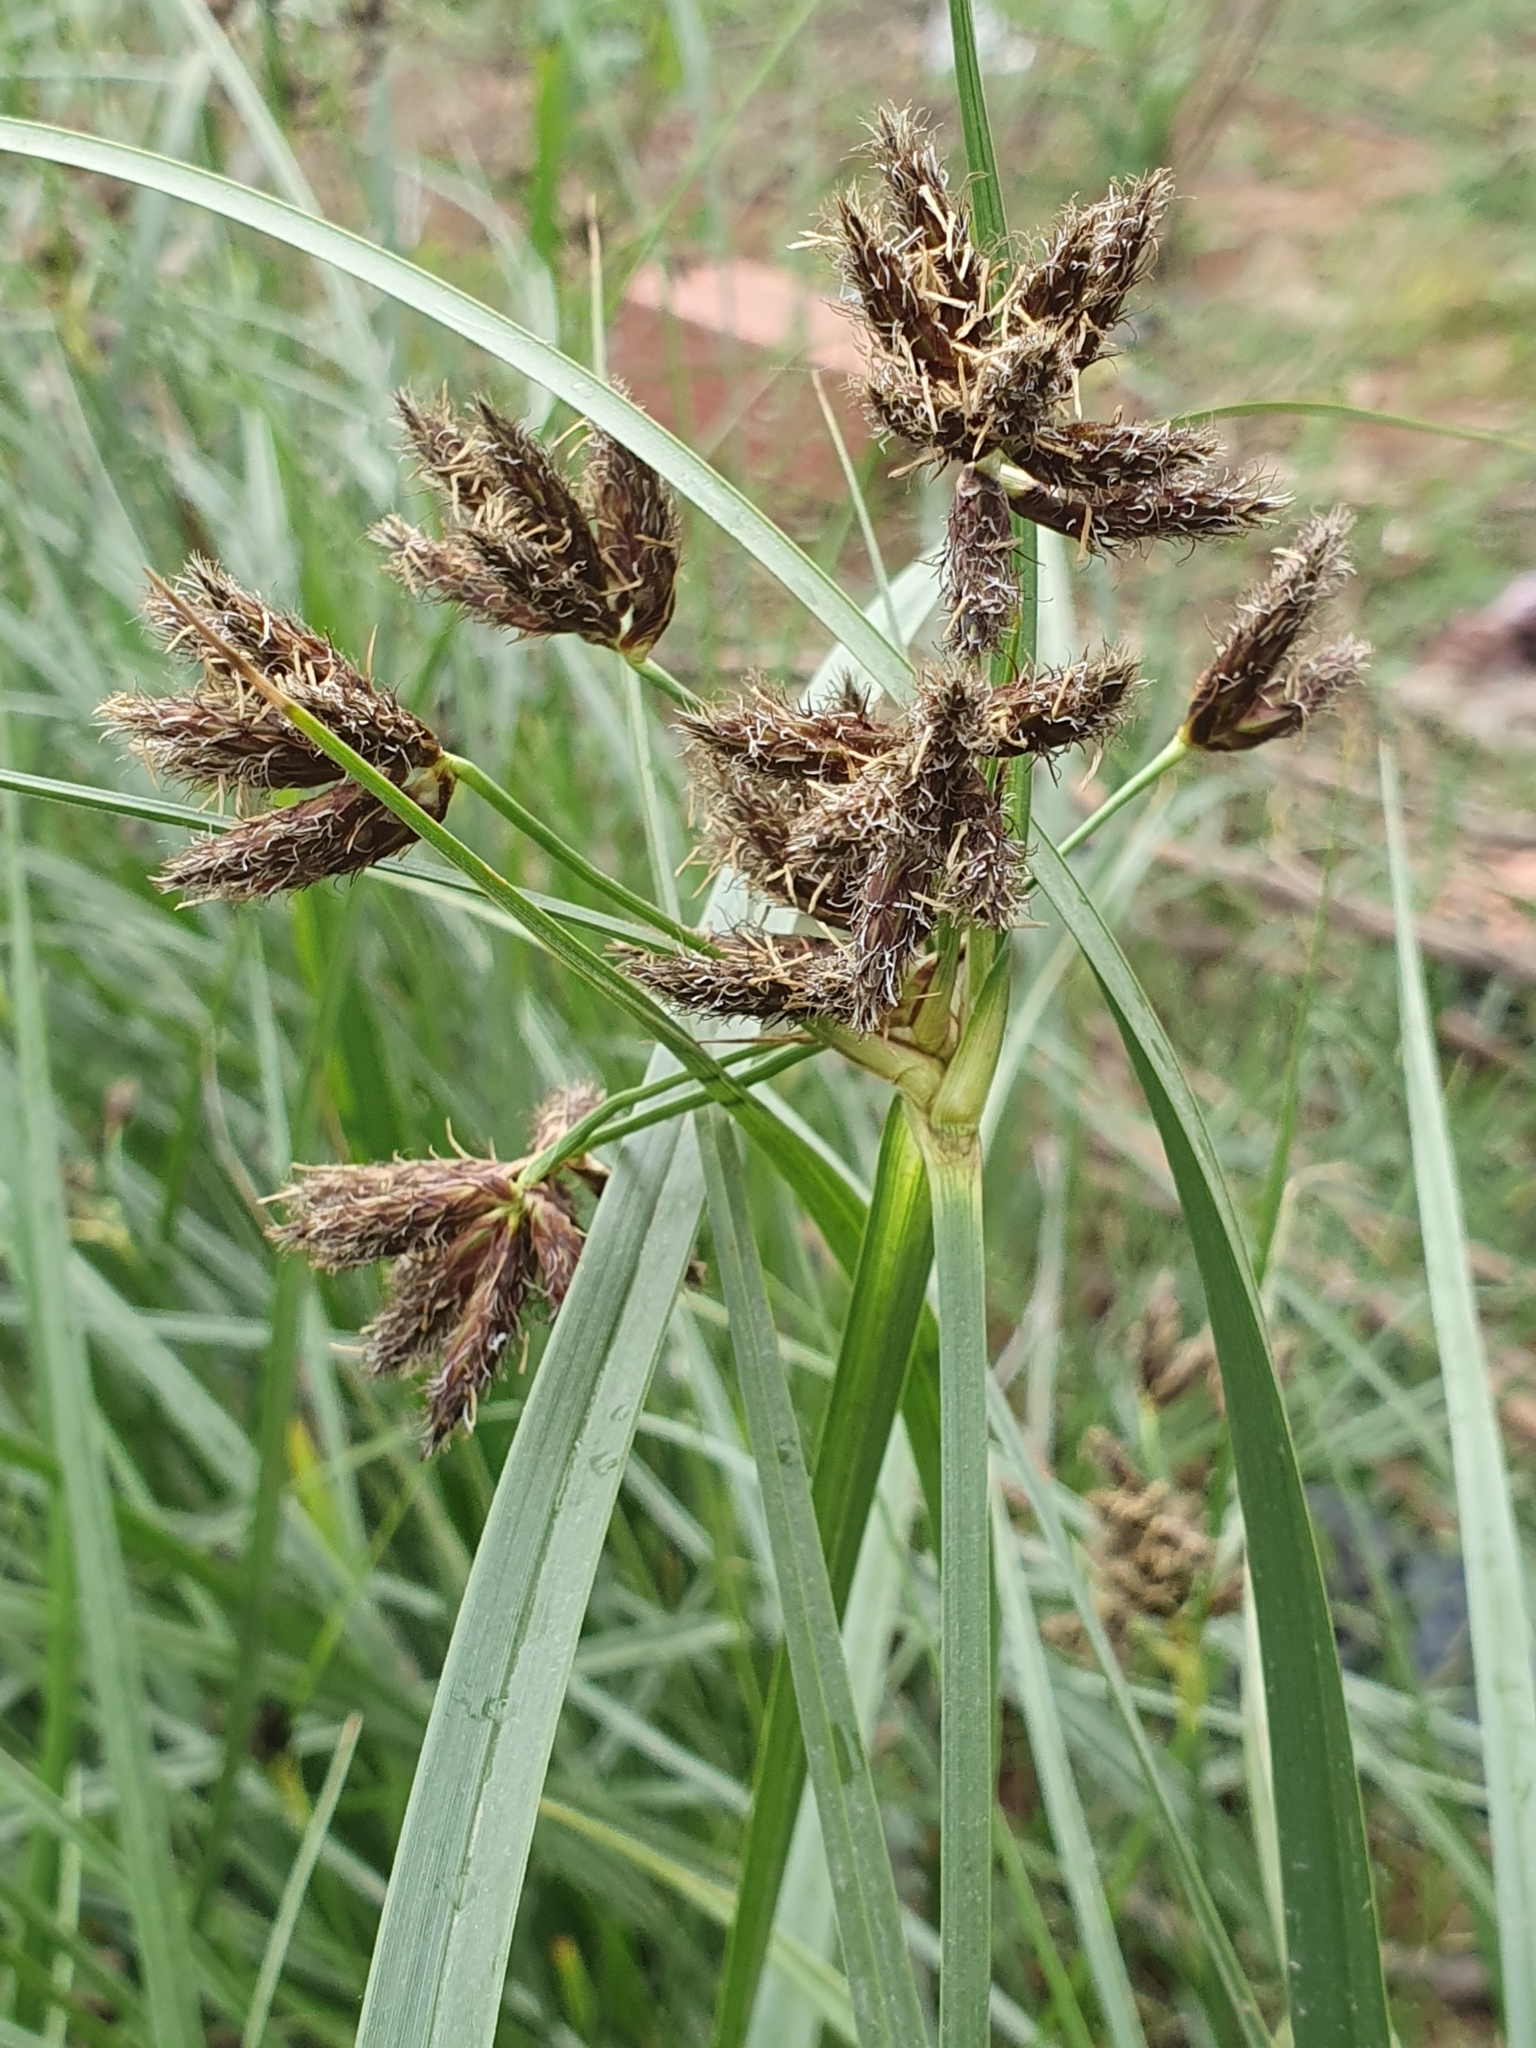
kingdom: Plantae
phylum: Tracheophyta
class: Liliopsida
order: Poales
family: Cyperaceae
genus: Bolboschoenus
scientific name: Bolboschoenus glaucus
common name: Tuberous bulrush
